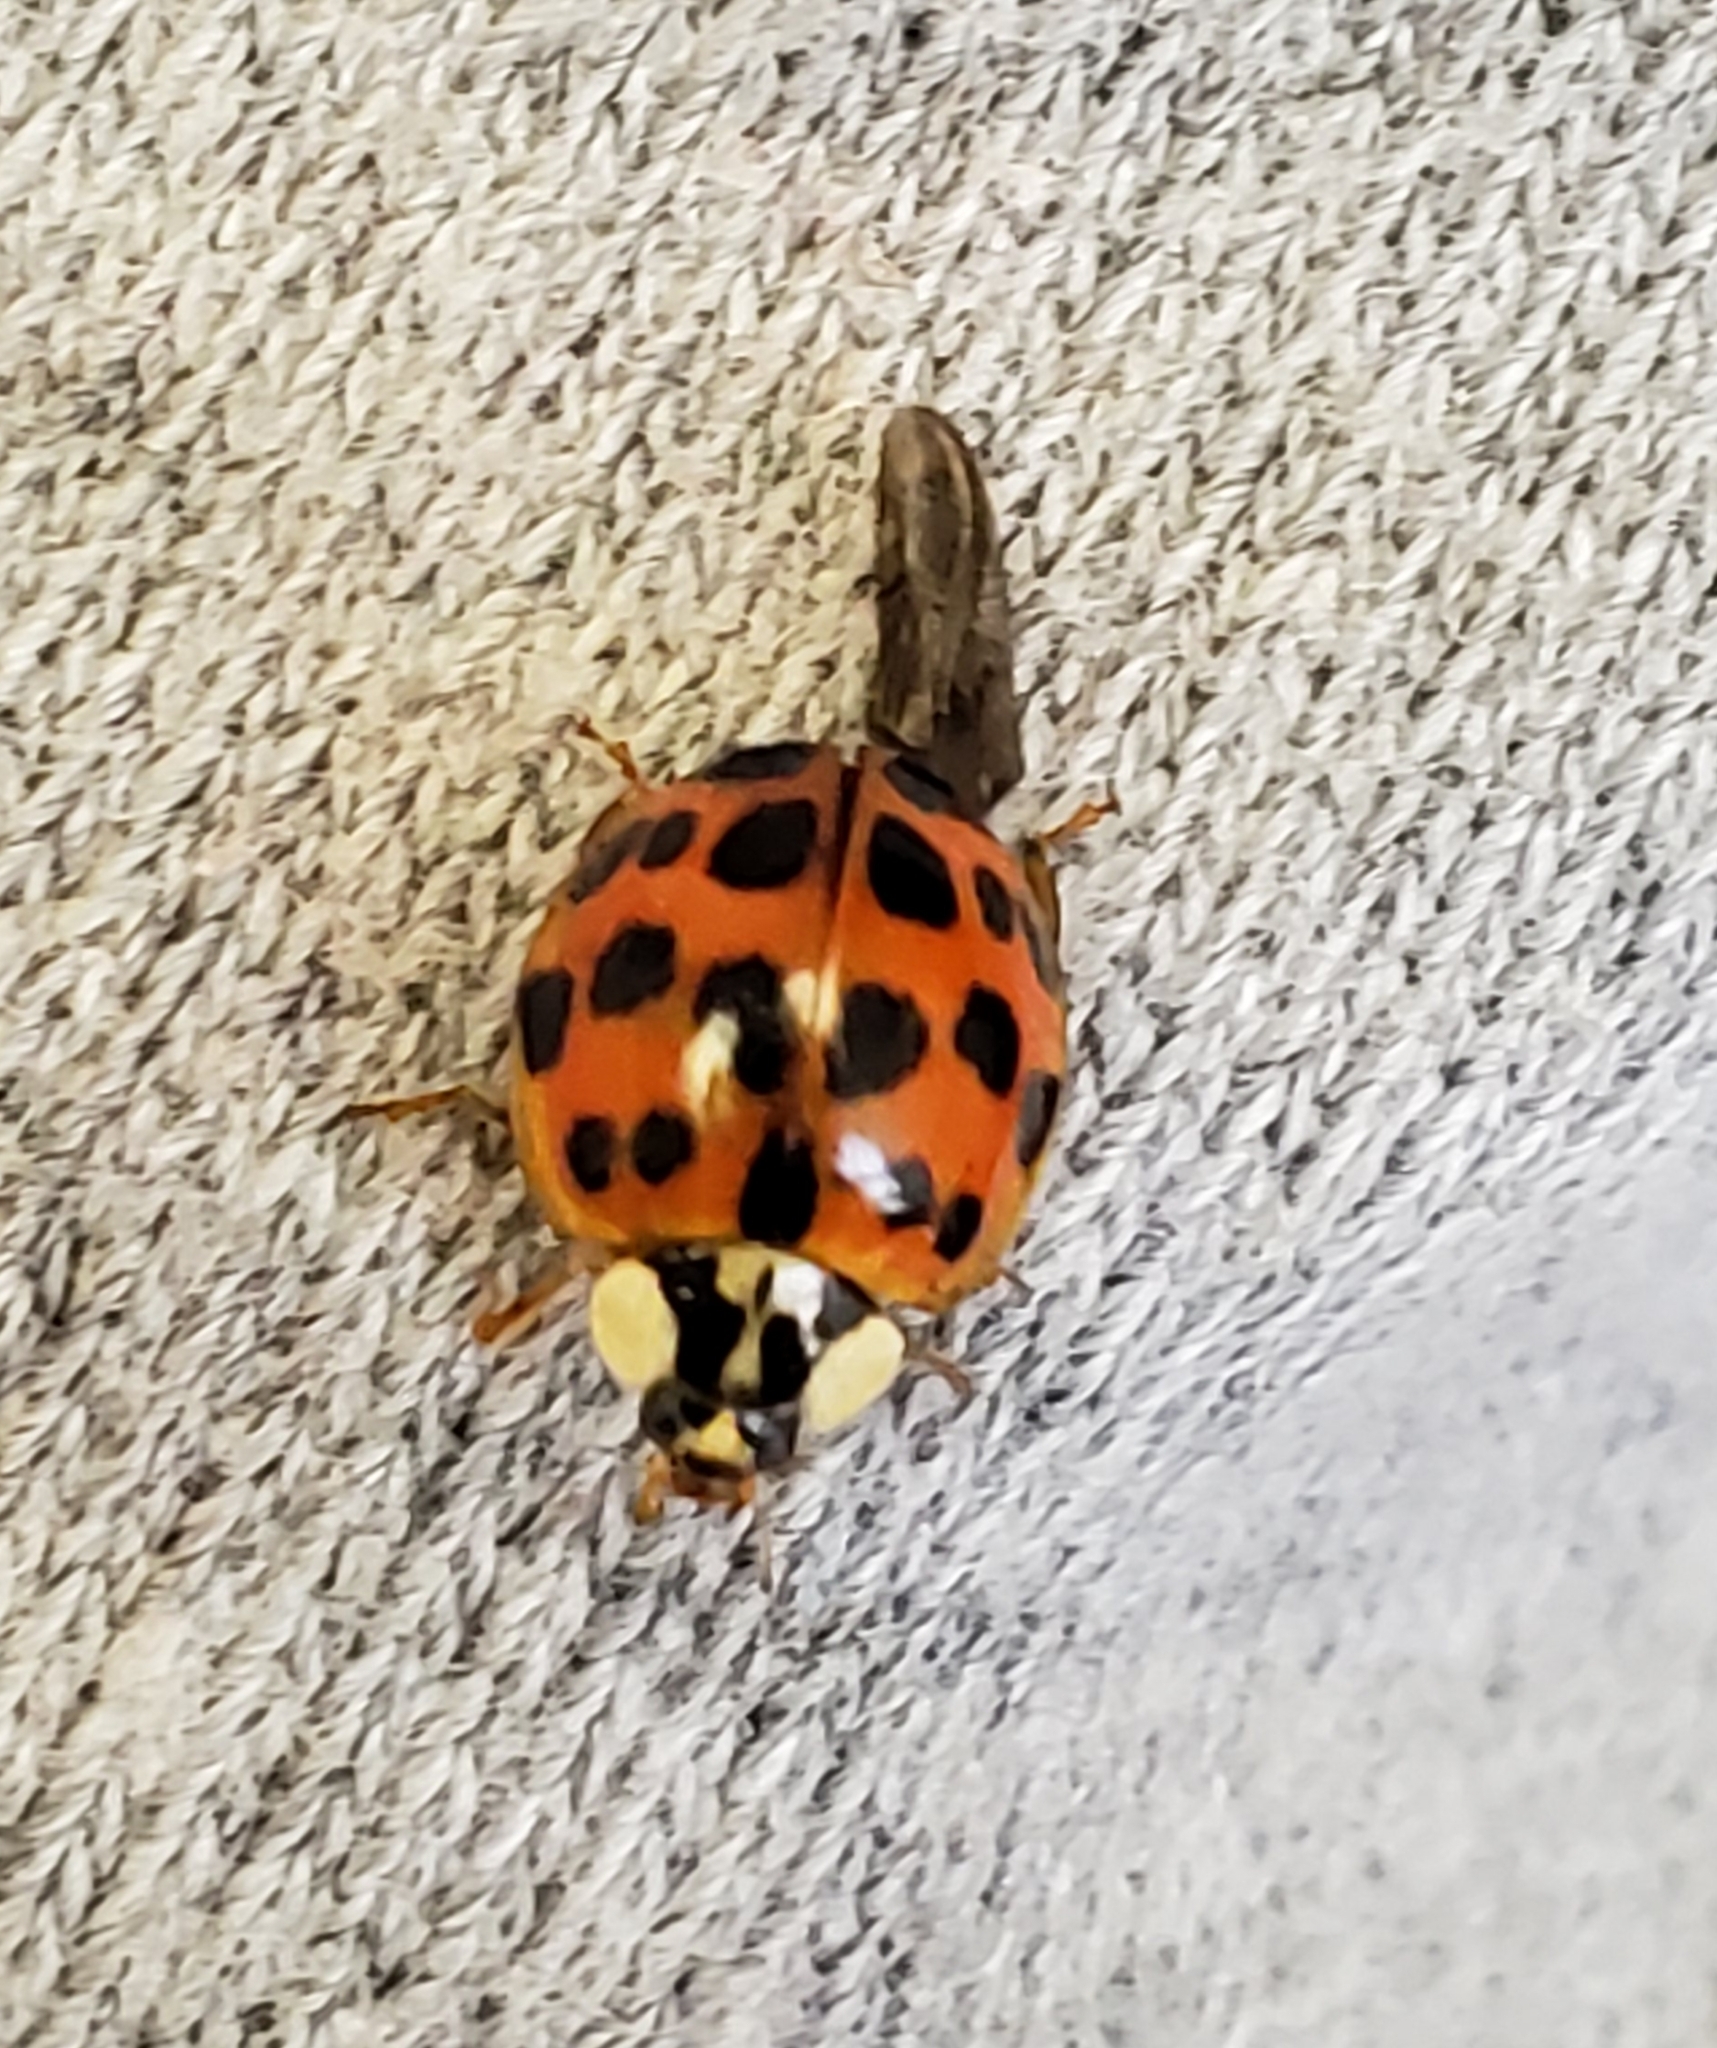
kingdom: Animalia
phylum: Arthropoda
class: Insecta
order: Coleoptera
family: Coccinellidae
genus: Harmonia
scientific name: Harmonia axyridis
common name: Harlequin ladybird
